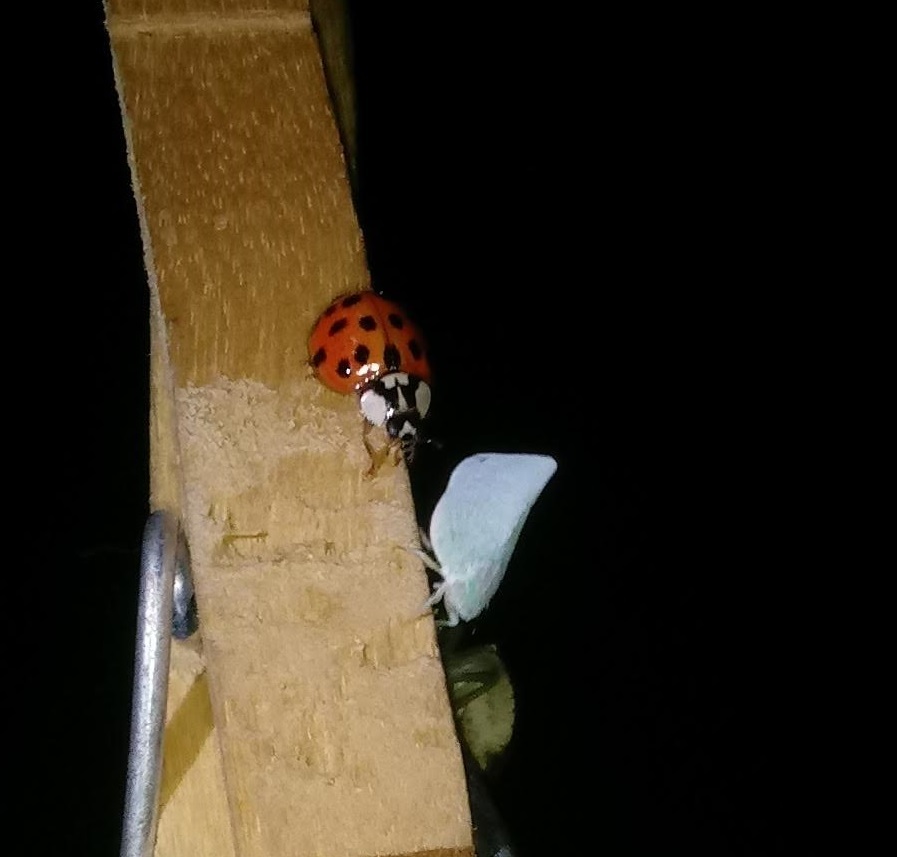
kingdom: Animalia
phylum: Arthropoda
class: Insecta
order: Coleoptera
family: Coccinellidae
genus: Harmonia
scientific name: Harmonia axyridis
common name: Harlequin ladybird
